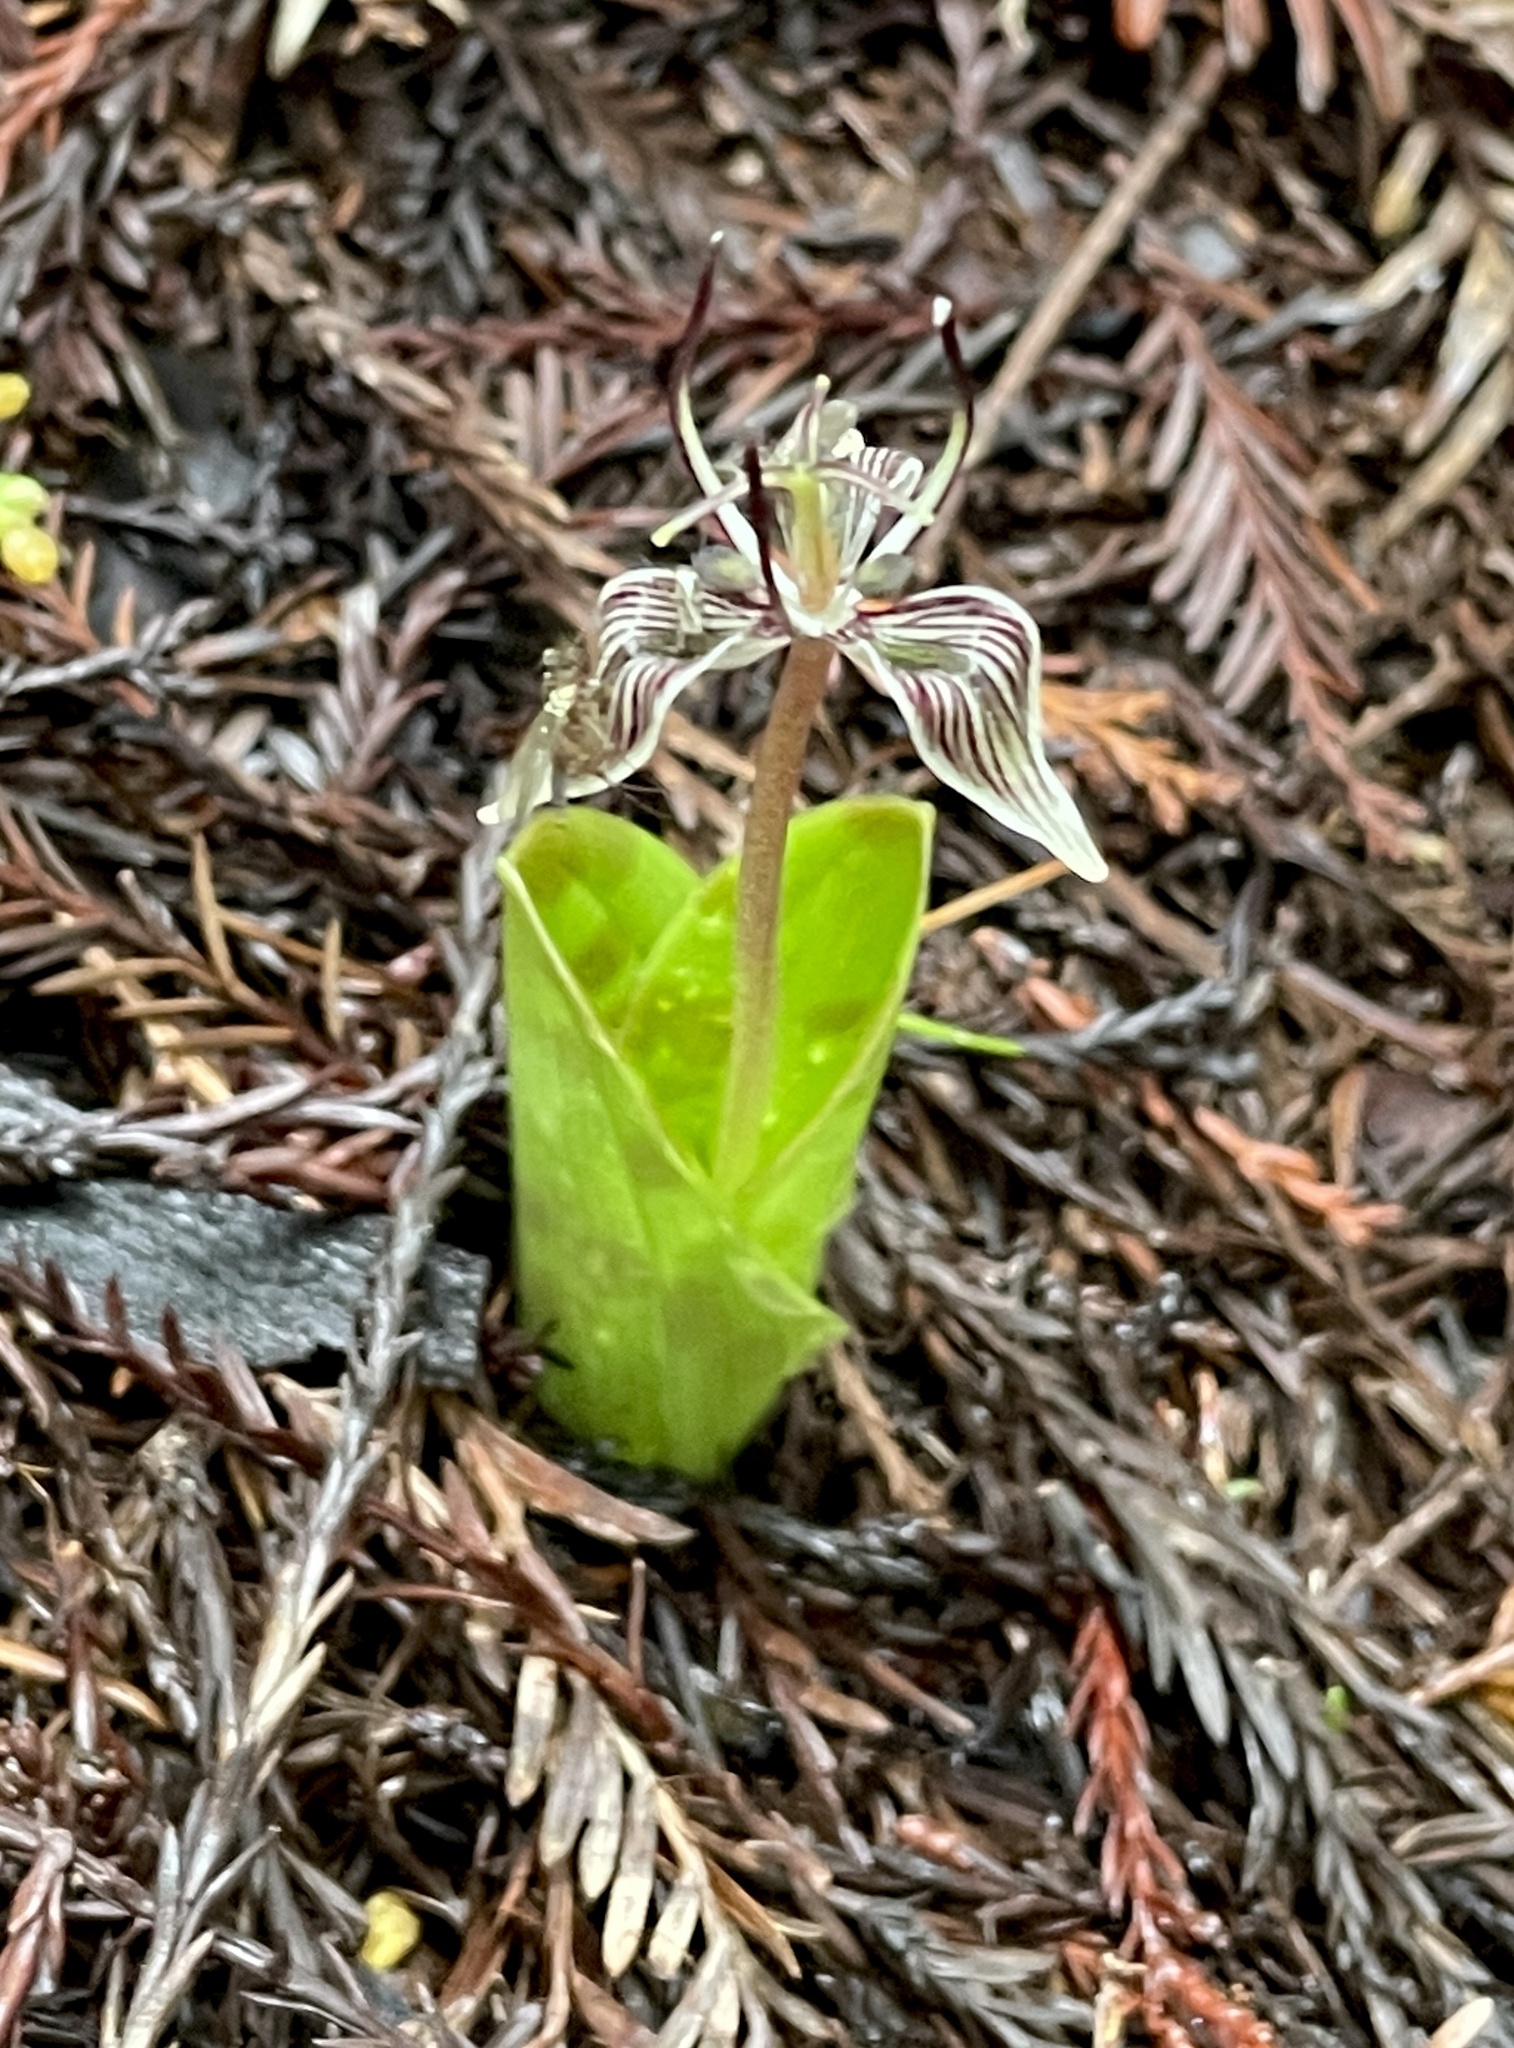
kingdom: Plantae
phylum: Tracheophyta
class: Liliopsida
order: Liliales
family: Liliaceae
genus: Scoliopus
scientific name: Scoliopus bigelovii
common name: Foetid adder's-tongue
